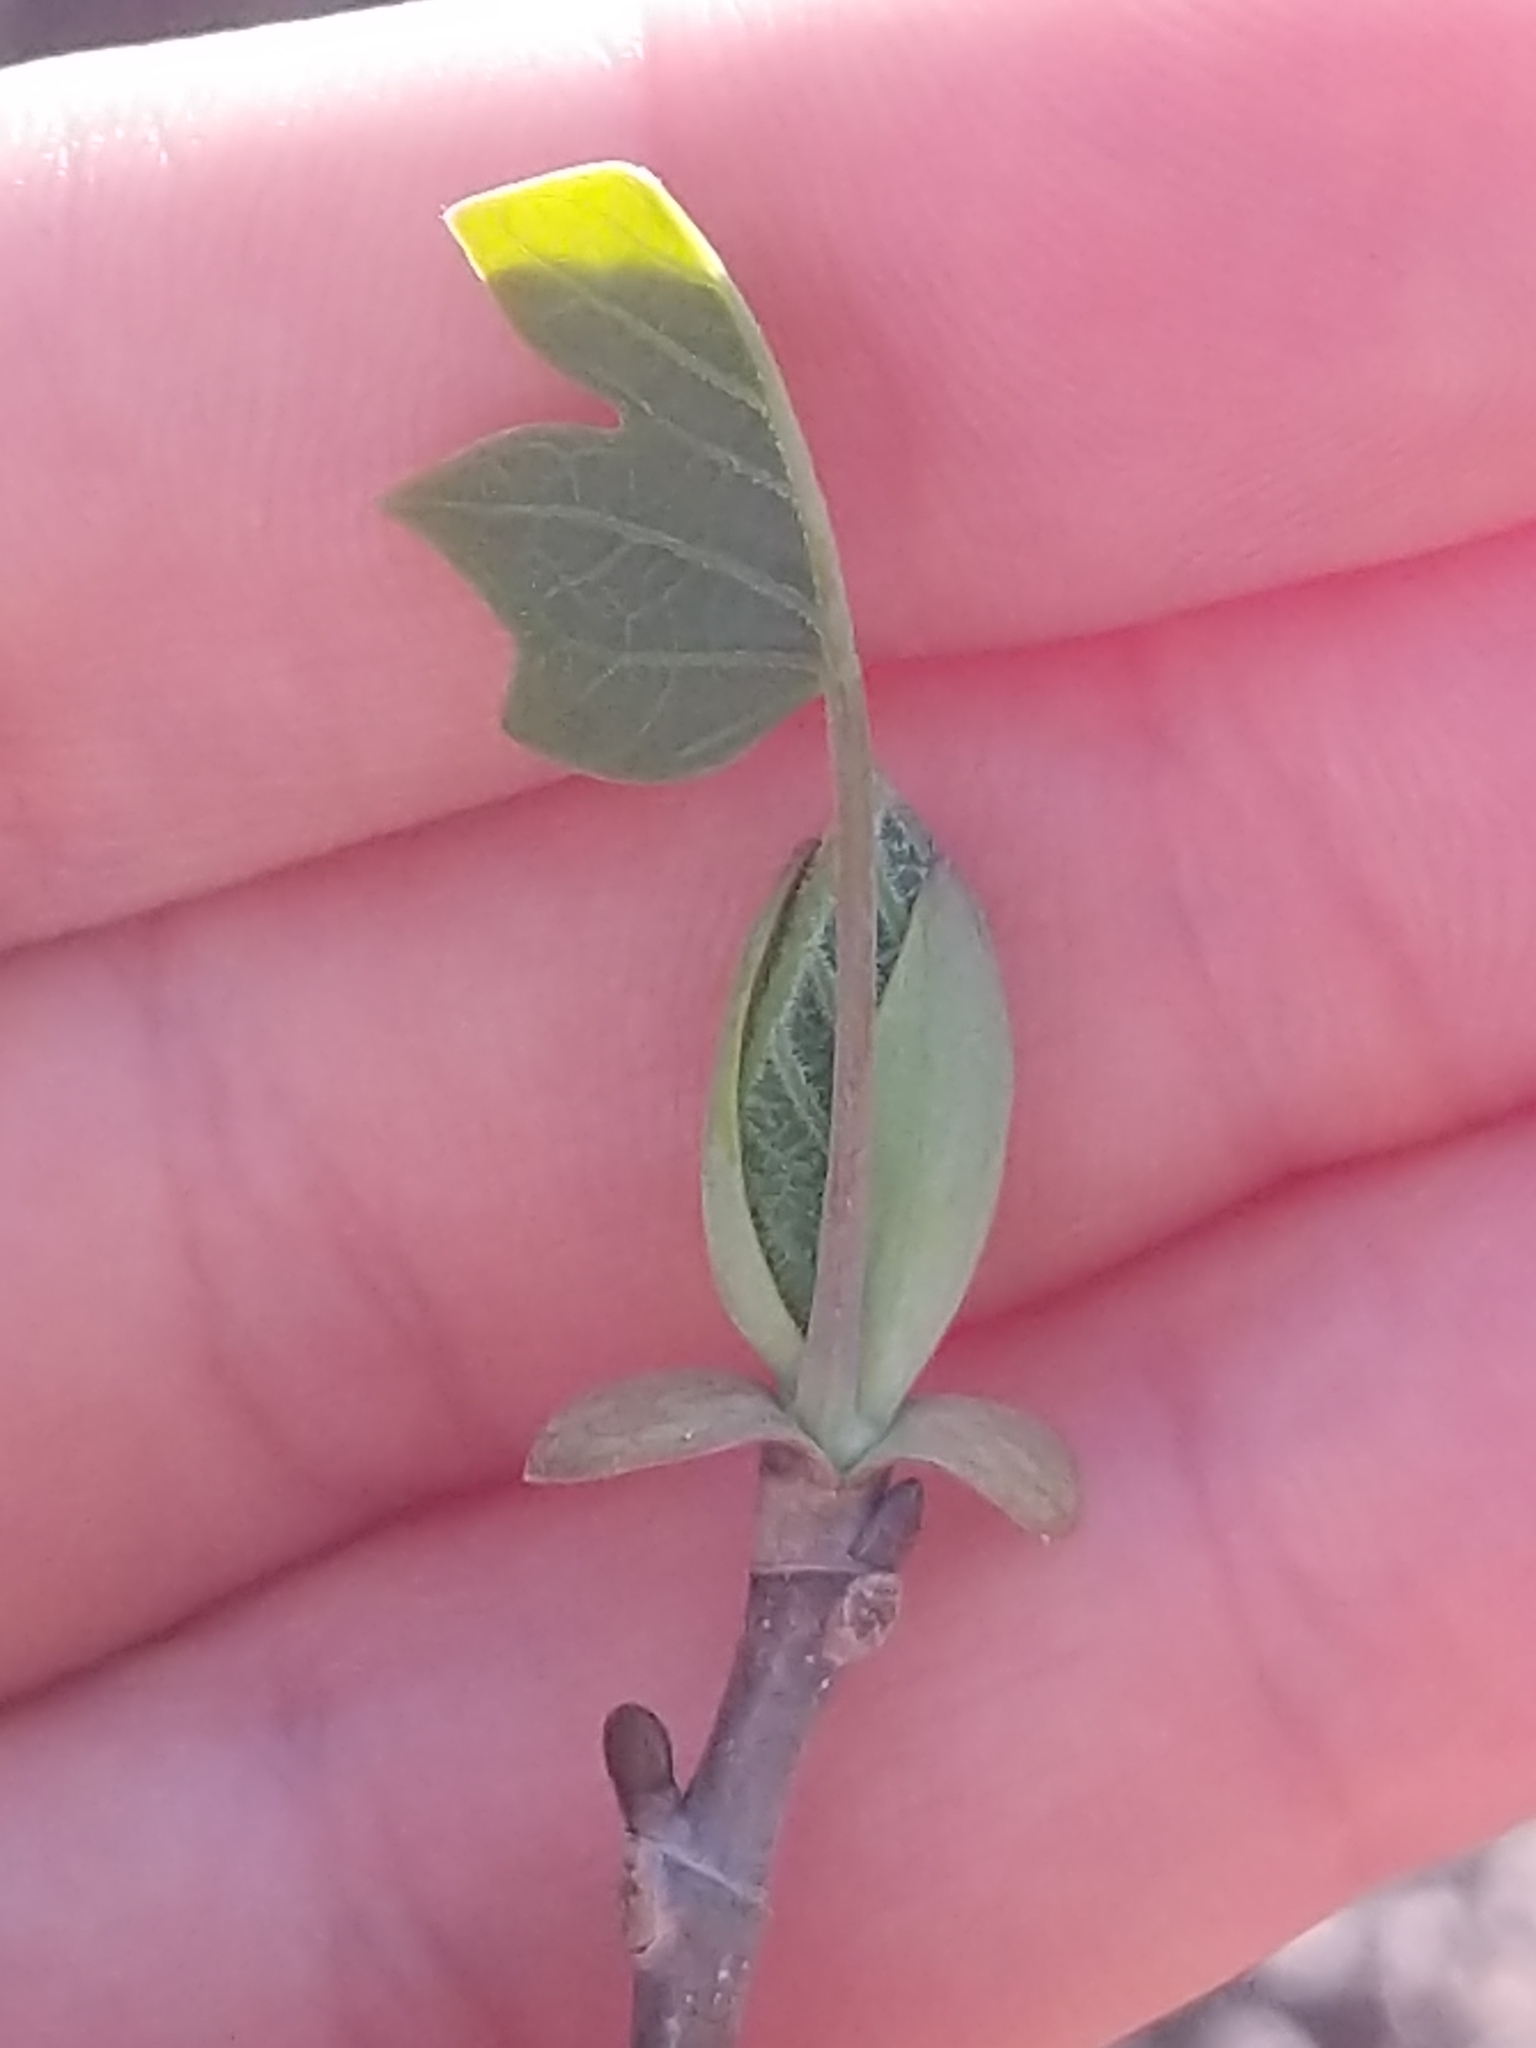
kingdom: Plantae
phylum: Tracheophyta
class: Magnoliopsida
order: Magnoliales
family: Magnoliaceae
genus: Liriodendron
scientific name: Liriodendron tulipifera
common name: Tulip tree
